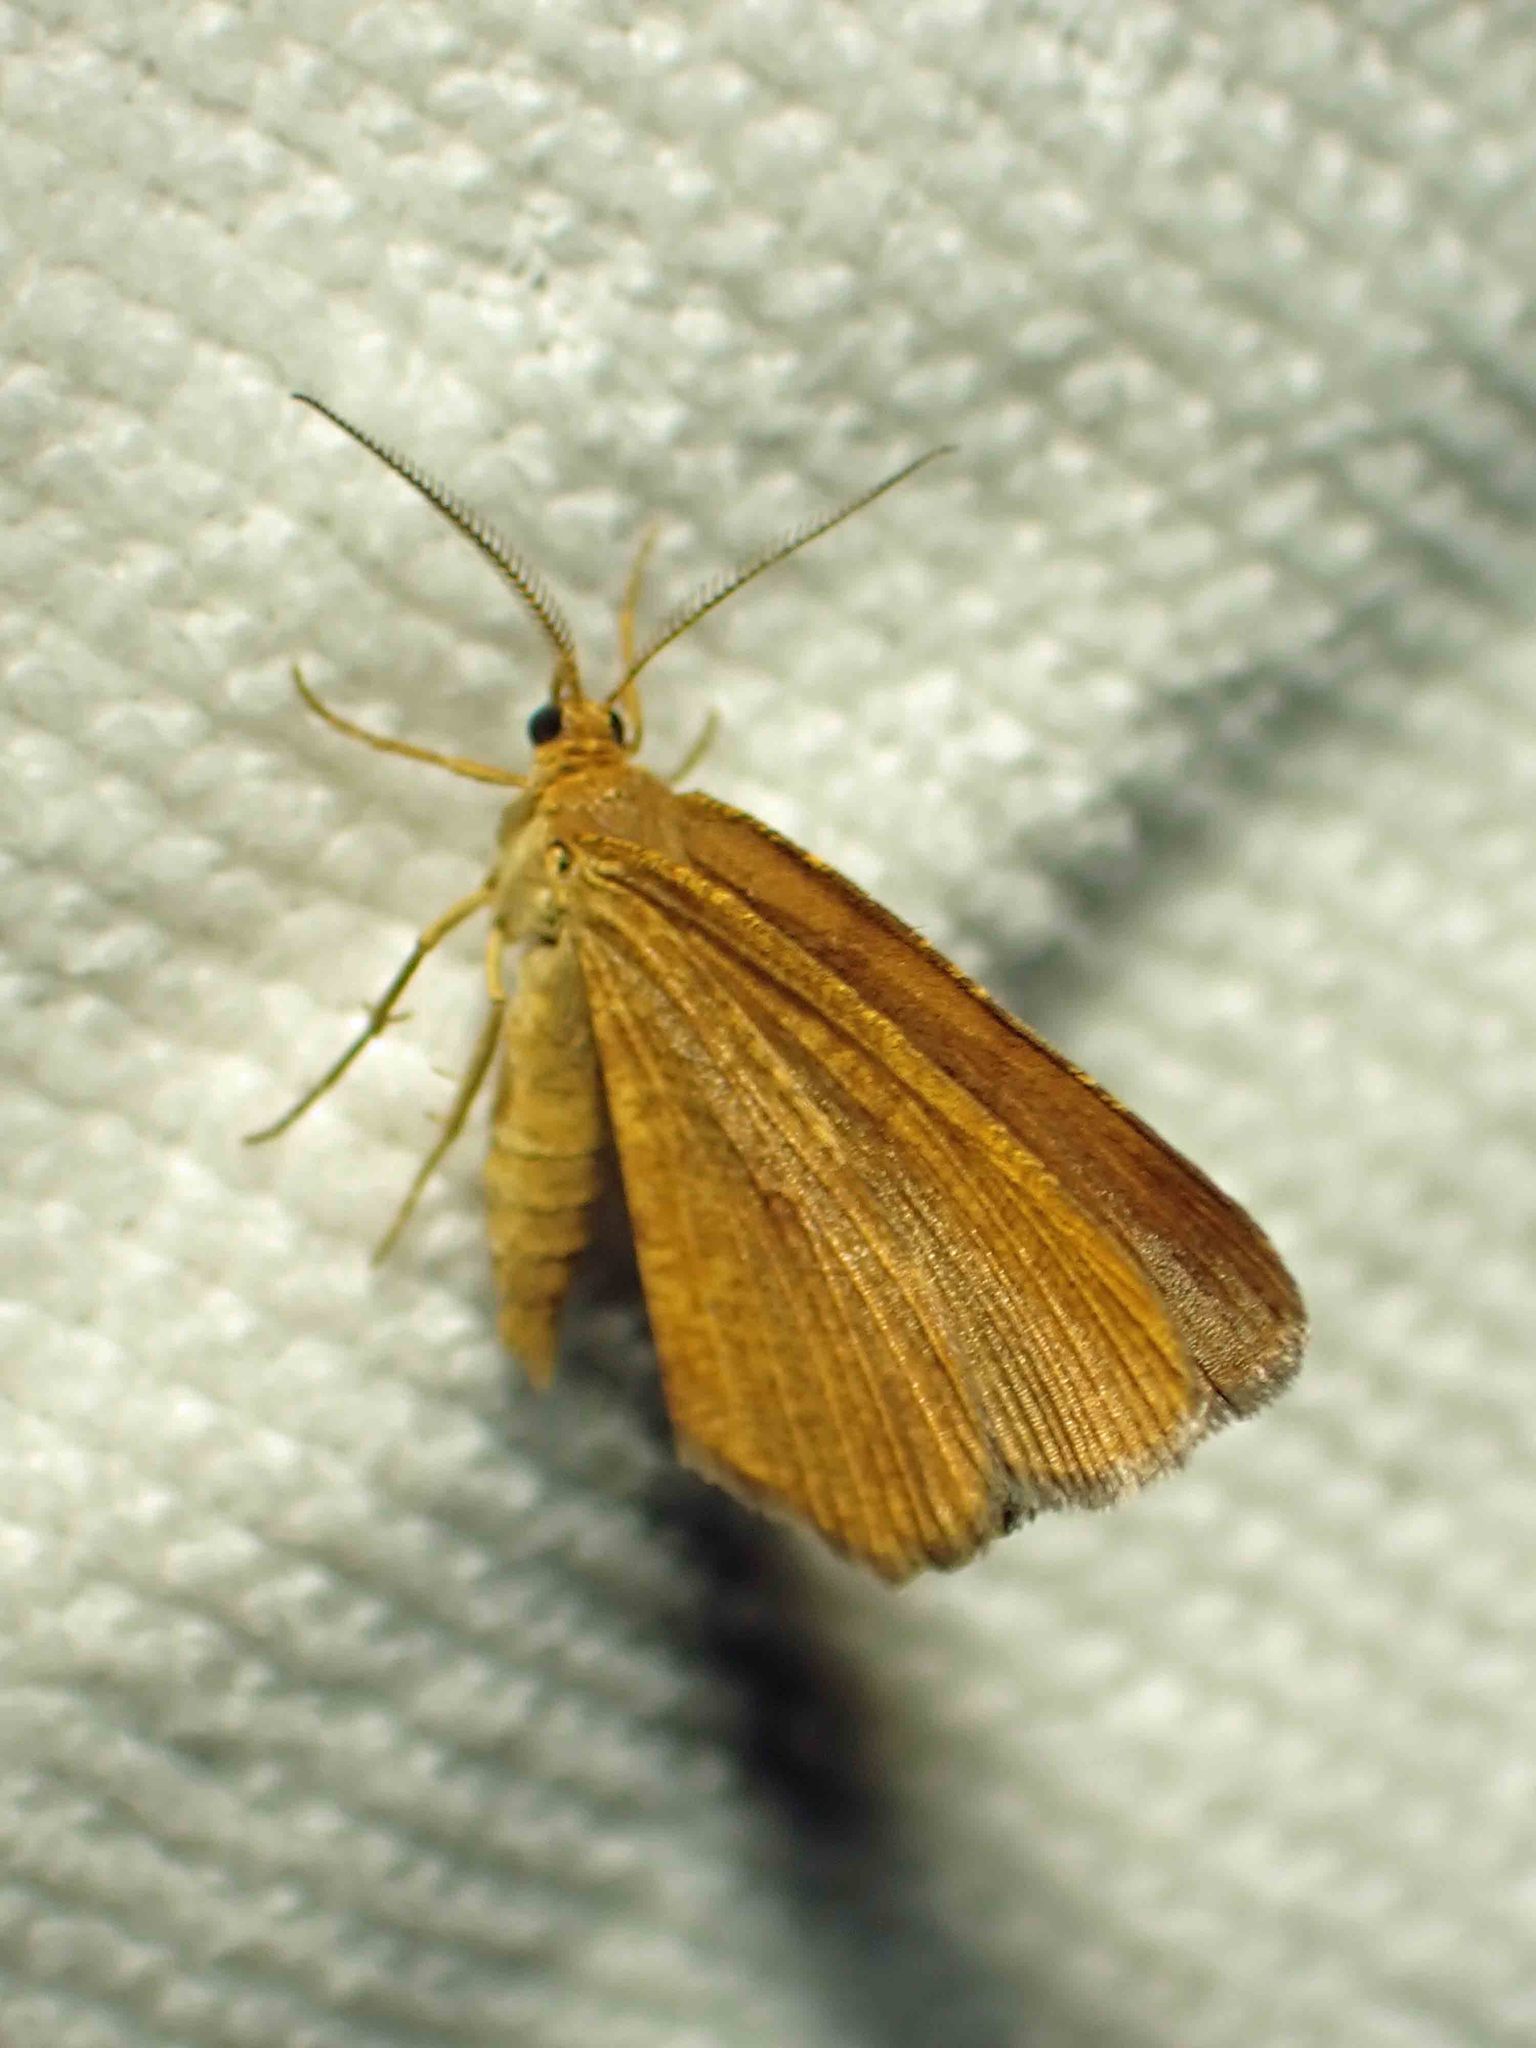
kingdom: Animalia
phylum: Arthropoda
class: Insecta
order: Lepidoptera
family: Geometridae
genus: Macaria
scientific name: Macaria brunneata
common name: Rannoch looper
